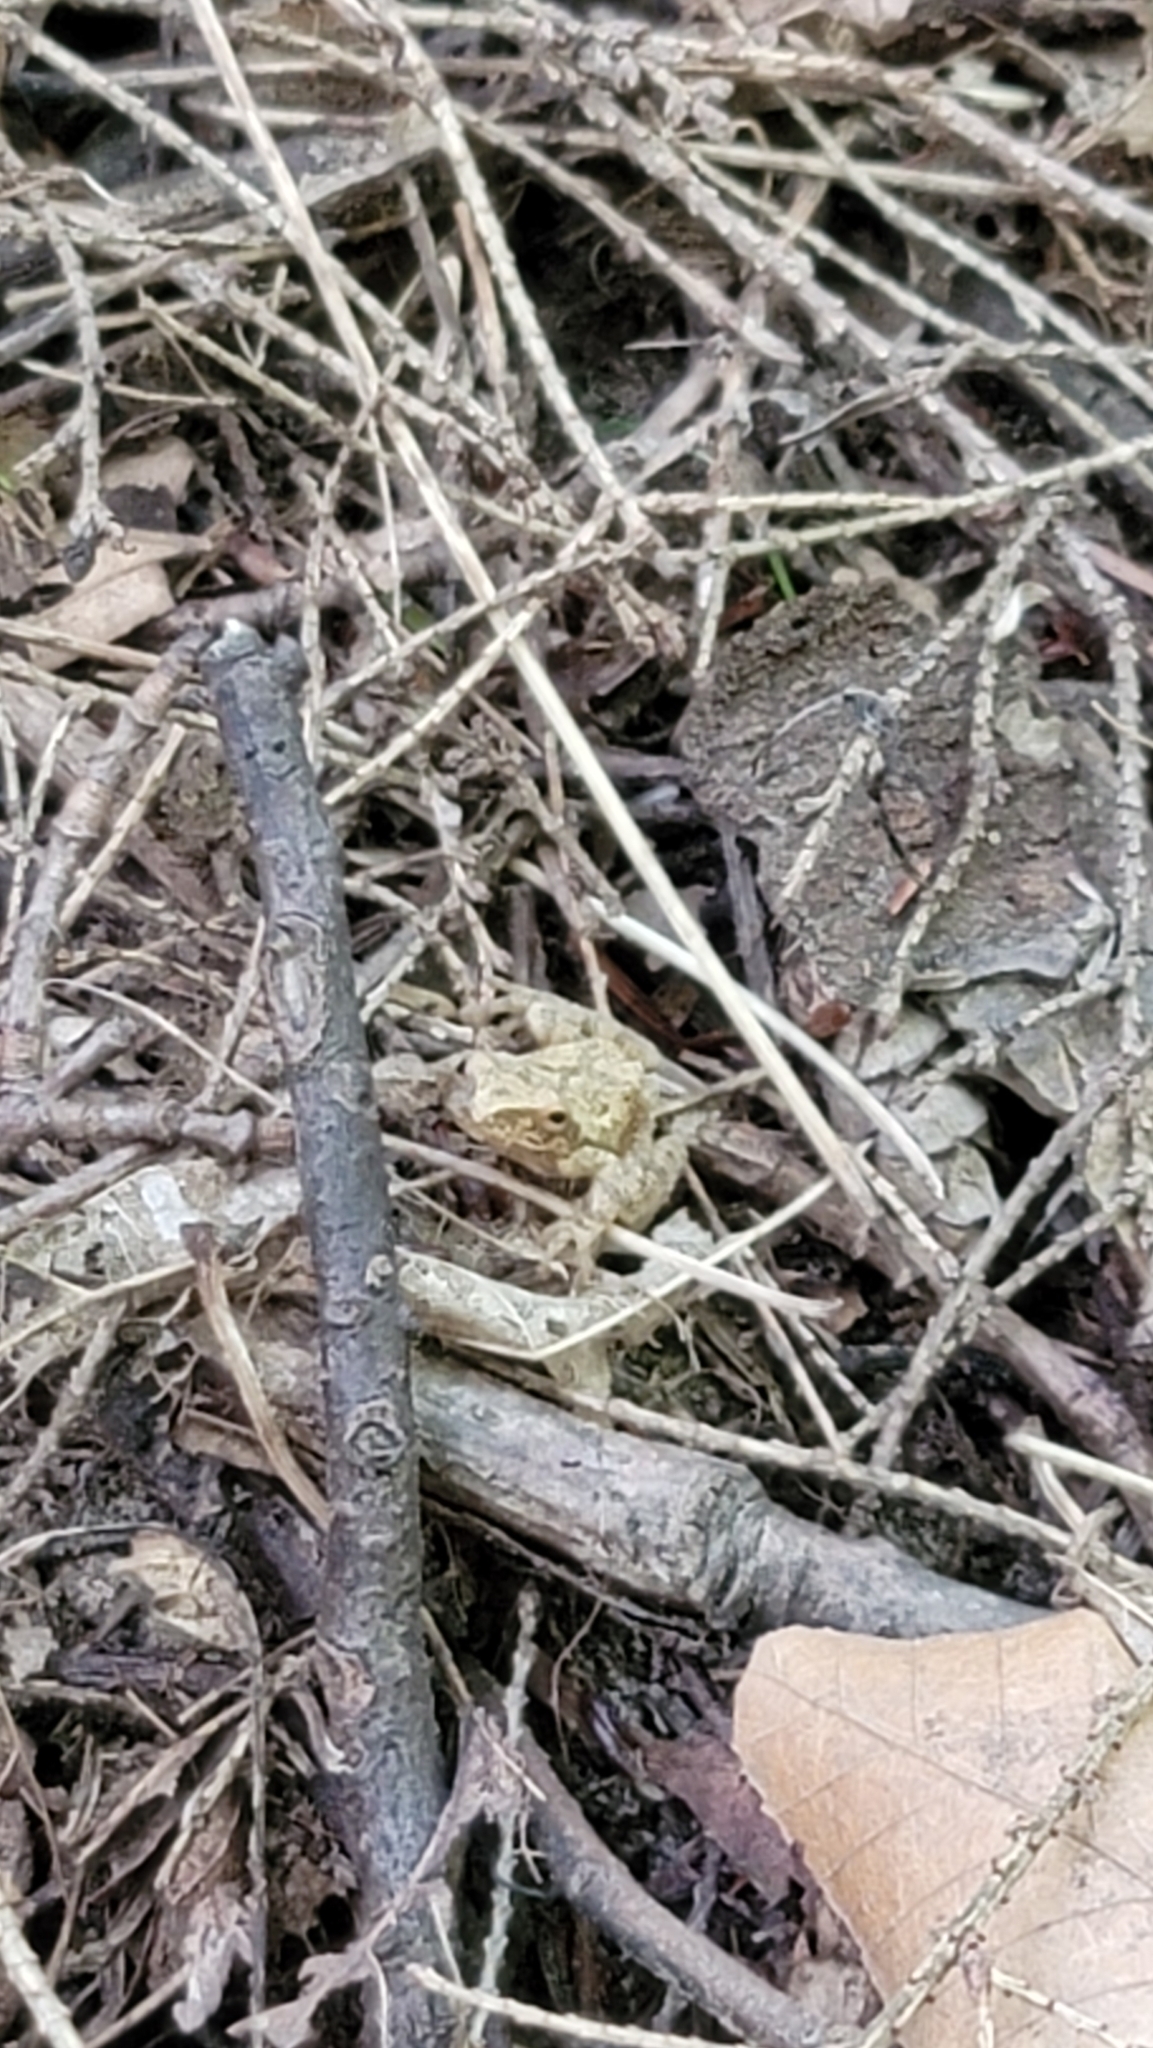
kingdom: Animalia
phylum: Chordata
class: Amphibia
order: Anura
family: Hylidae
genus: Pseudacris
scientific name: Pseudacris crucifer
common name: Spring peeper
